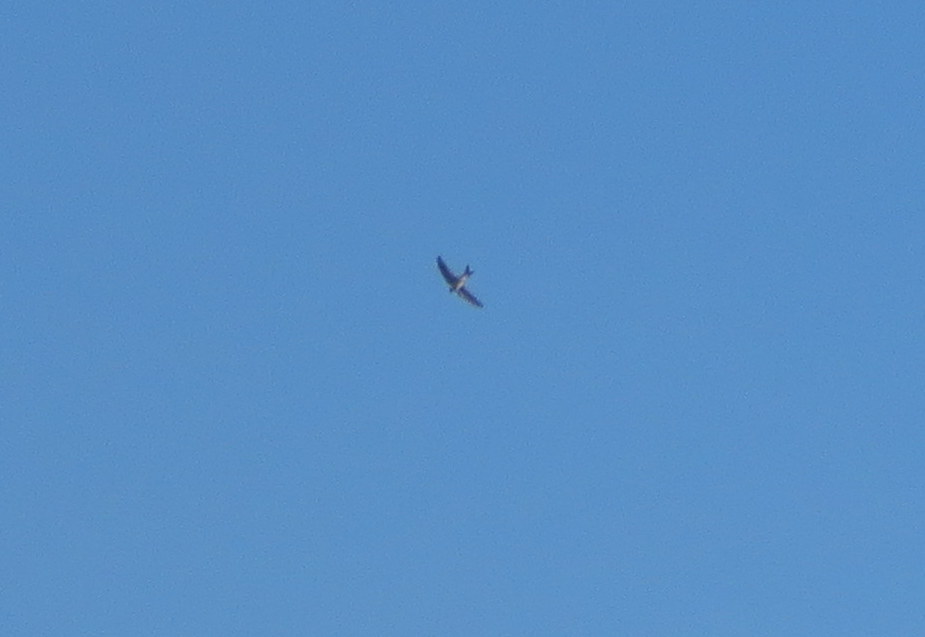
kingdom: Animalia
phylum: Chordata
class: Aves
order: Apodiformes
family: Apodidae
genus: Aeronautes
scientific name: Aeronautes andecolus
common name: Andean swift
